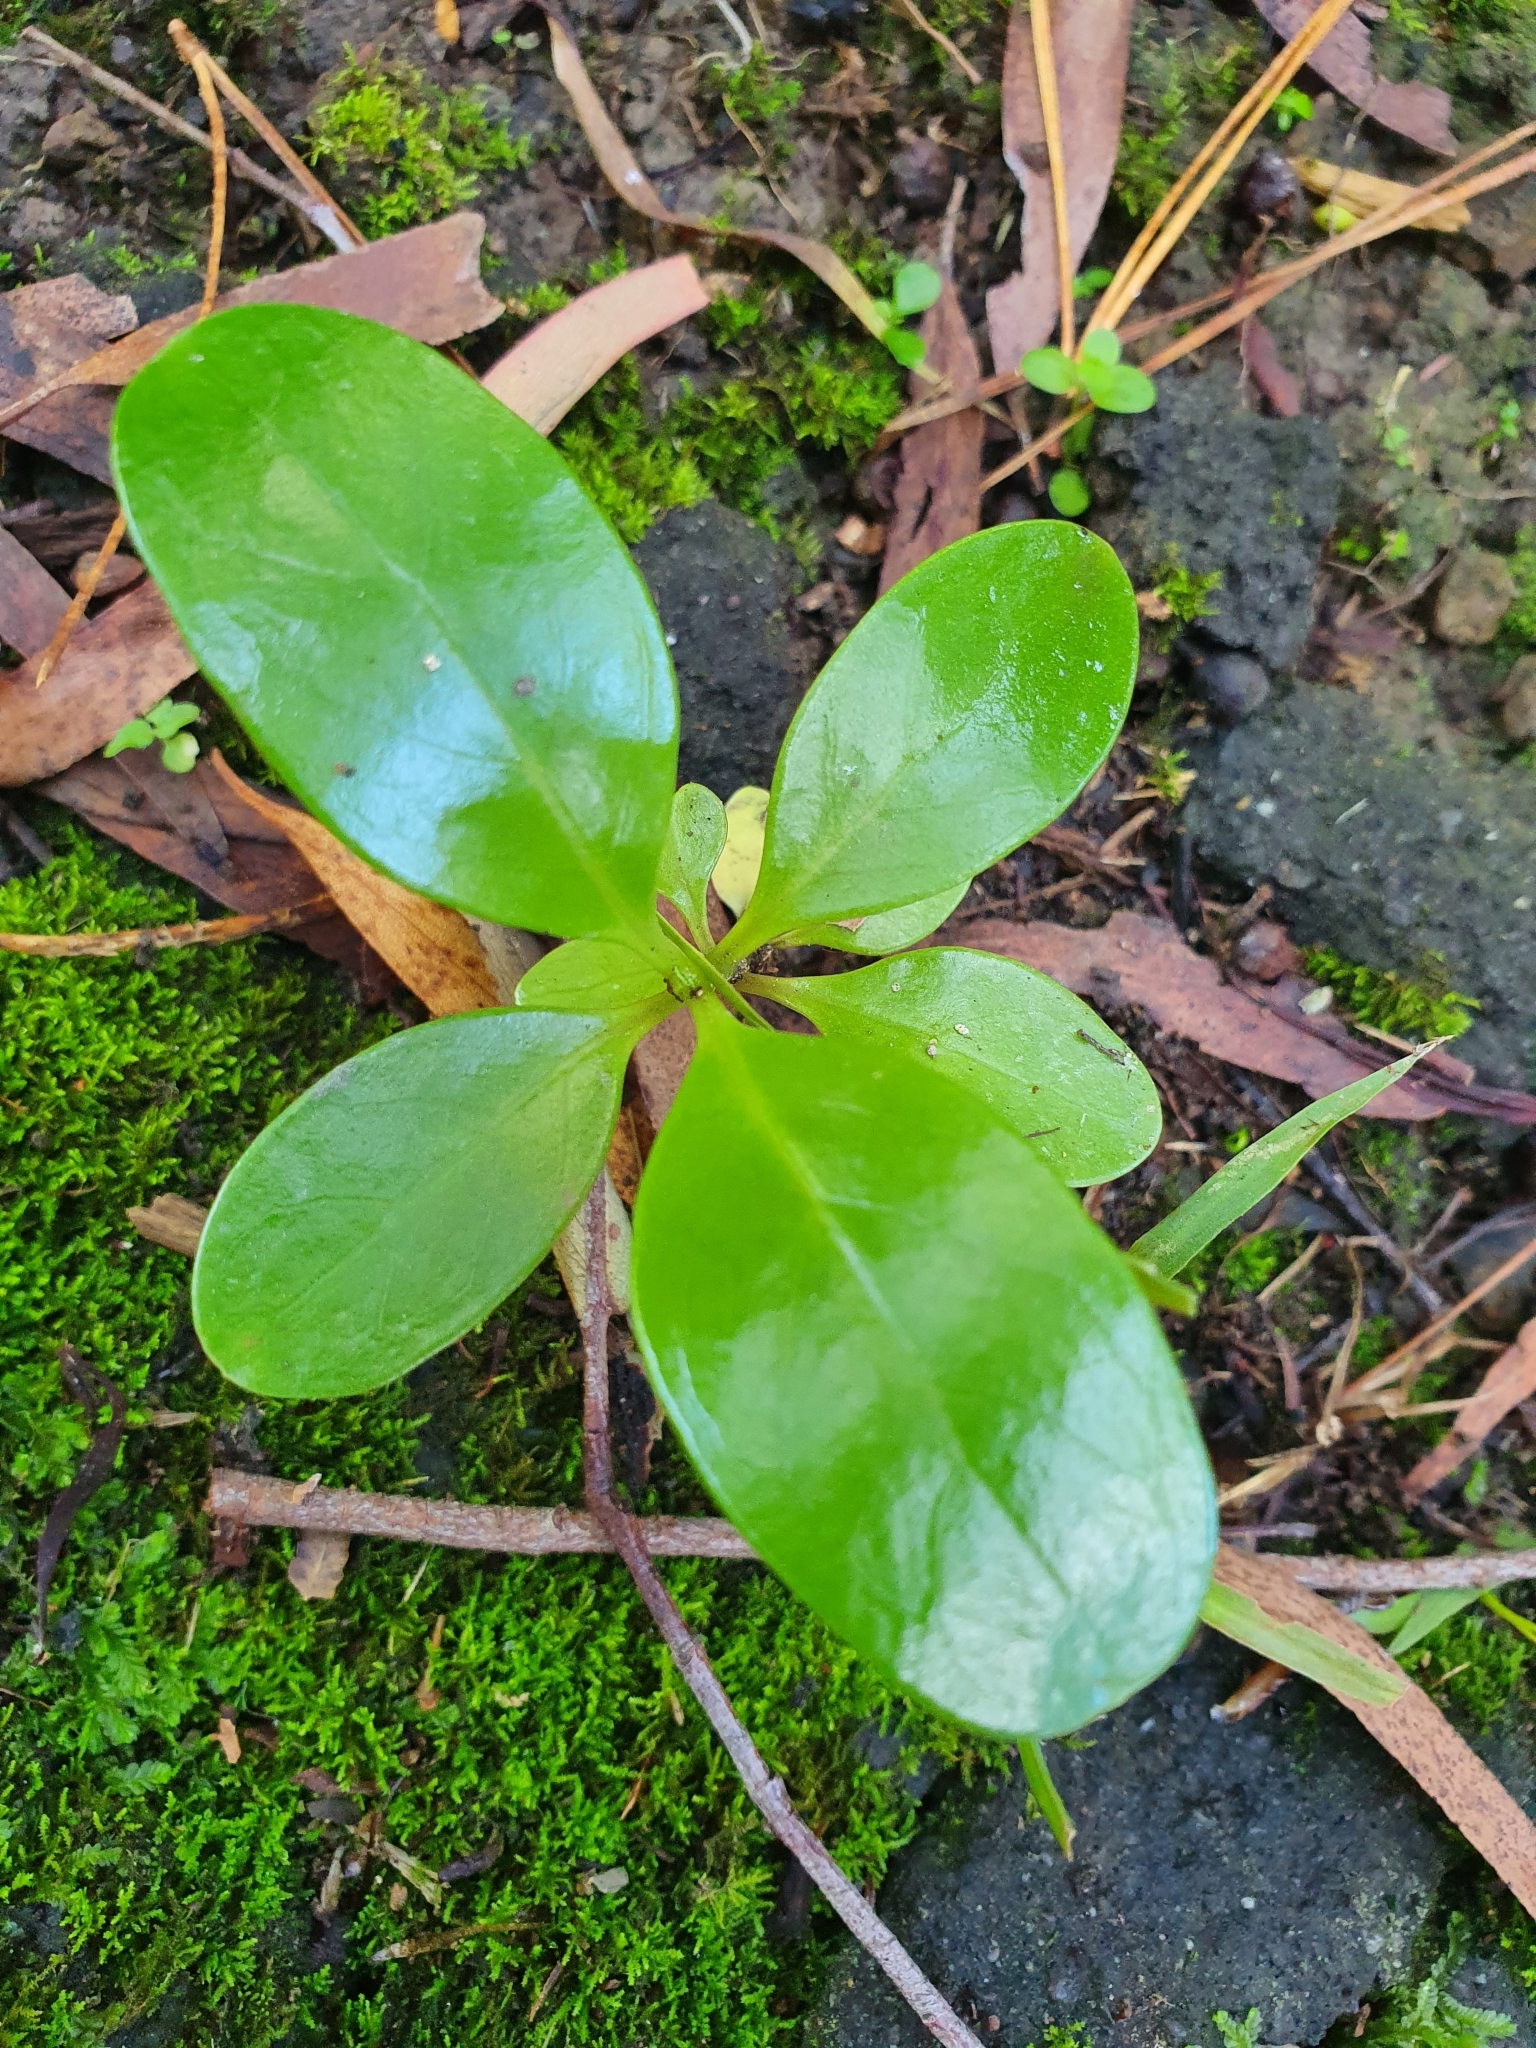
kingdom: Plantae
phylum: Tracheophyta
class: Magnoliopsida
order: Gentianales
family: Rubiaceae
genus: Coprosma
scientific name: Coprosma repens
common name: Tree bedstraw
